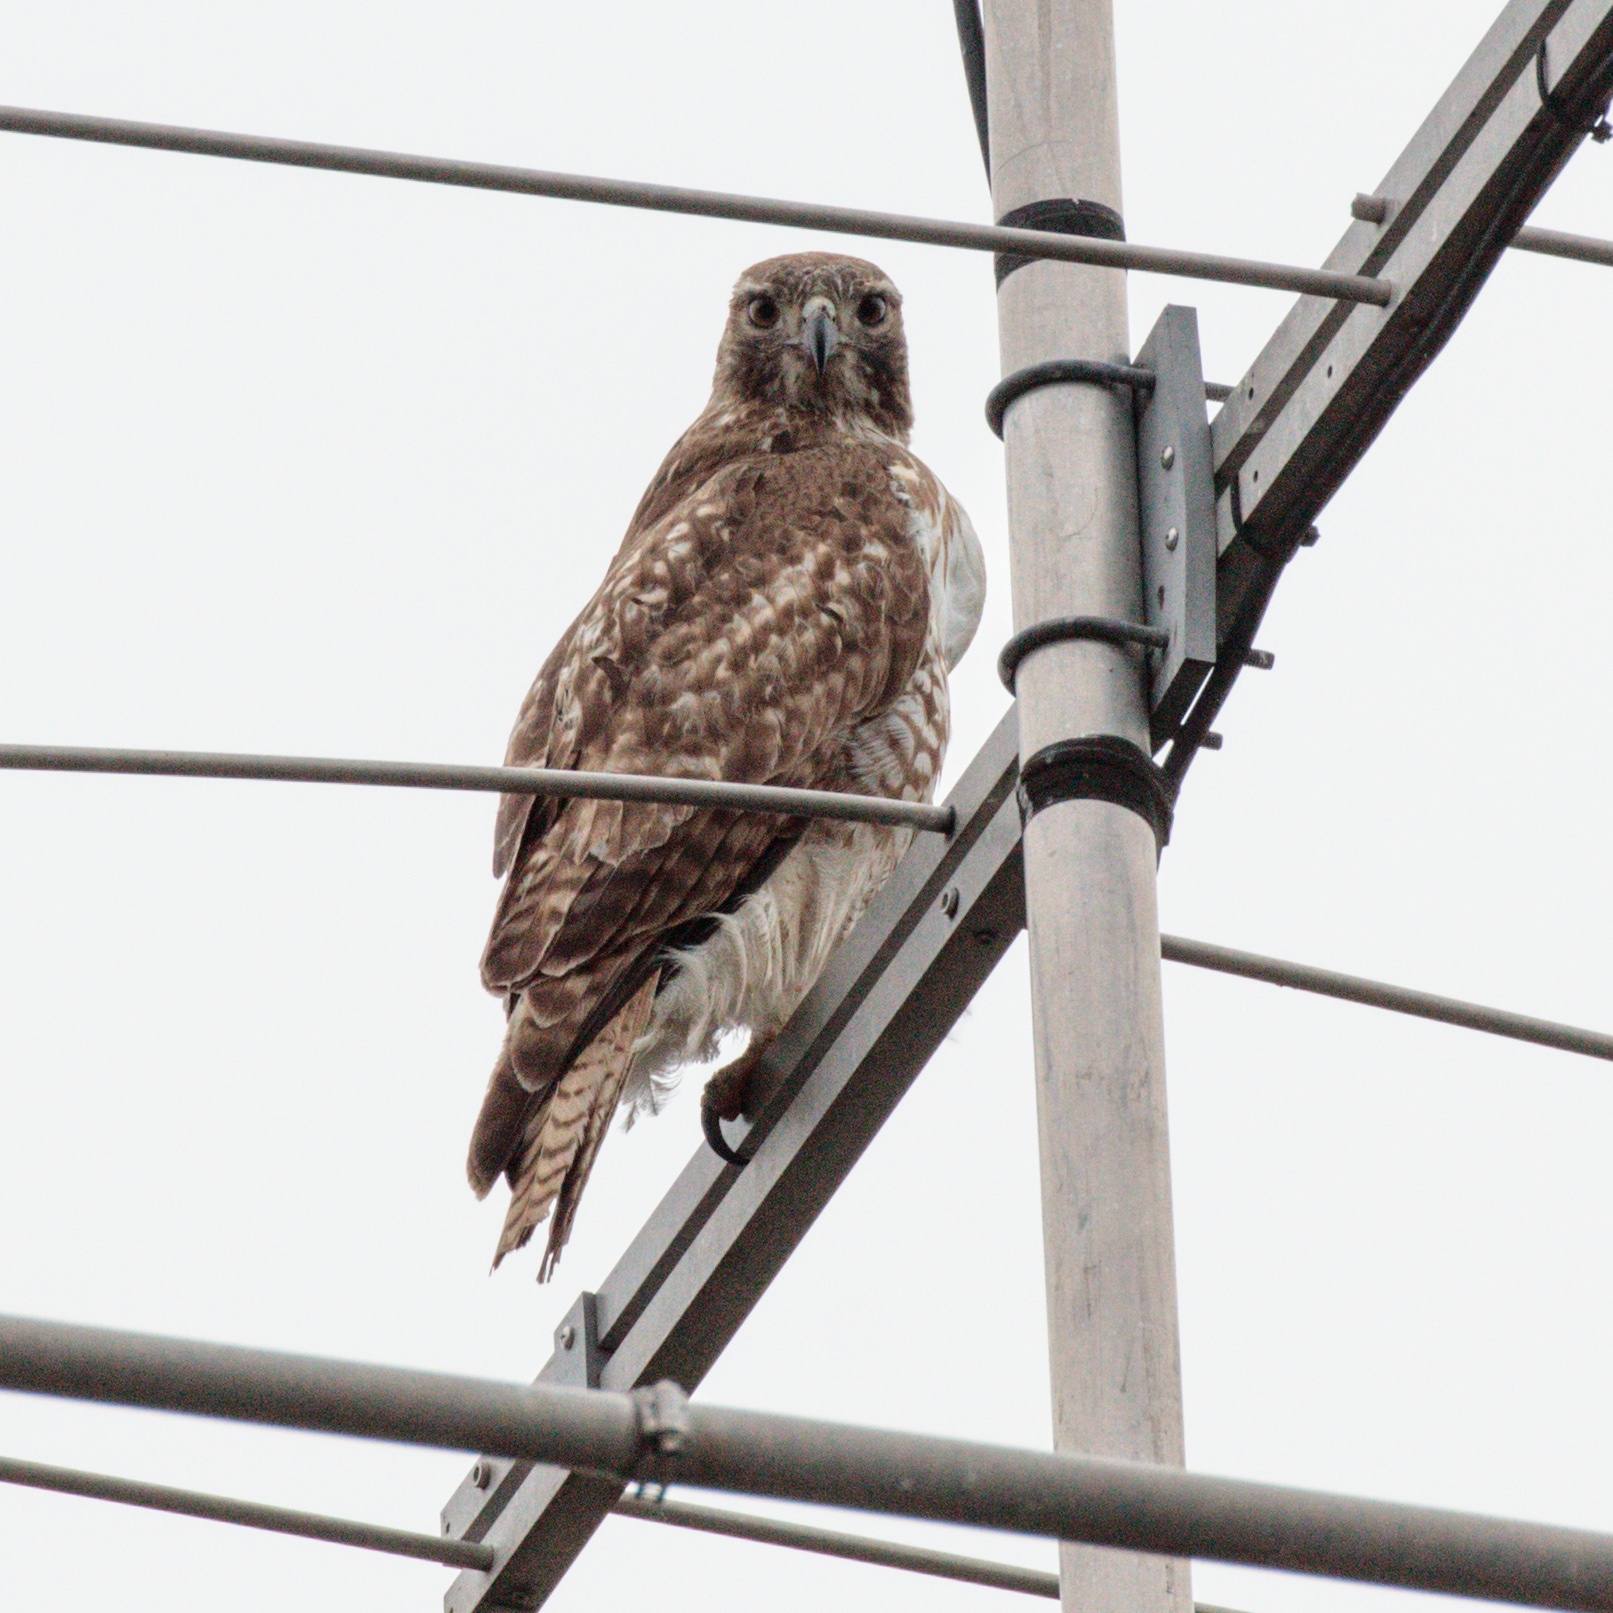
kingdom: Animalia
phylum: Chordata
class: Aves
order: Accipitriformes
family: Accipitridae
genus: Buteo
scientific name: Buteo jamaicensis
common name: Red-tailed hawk
